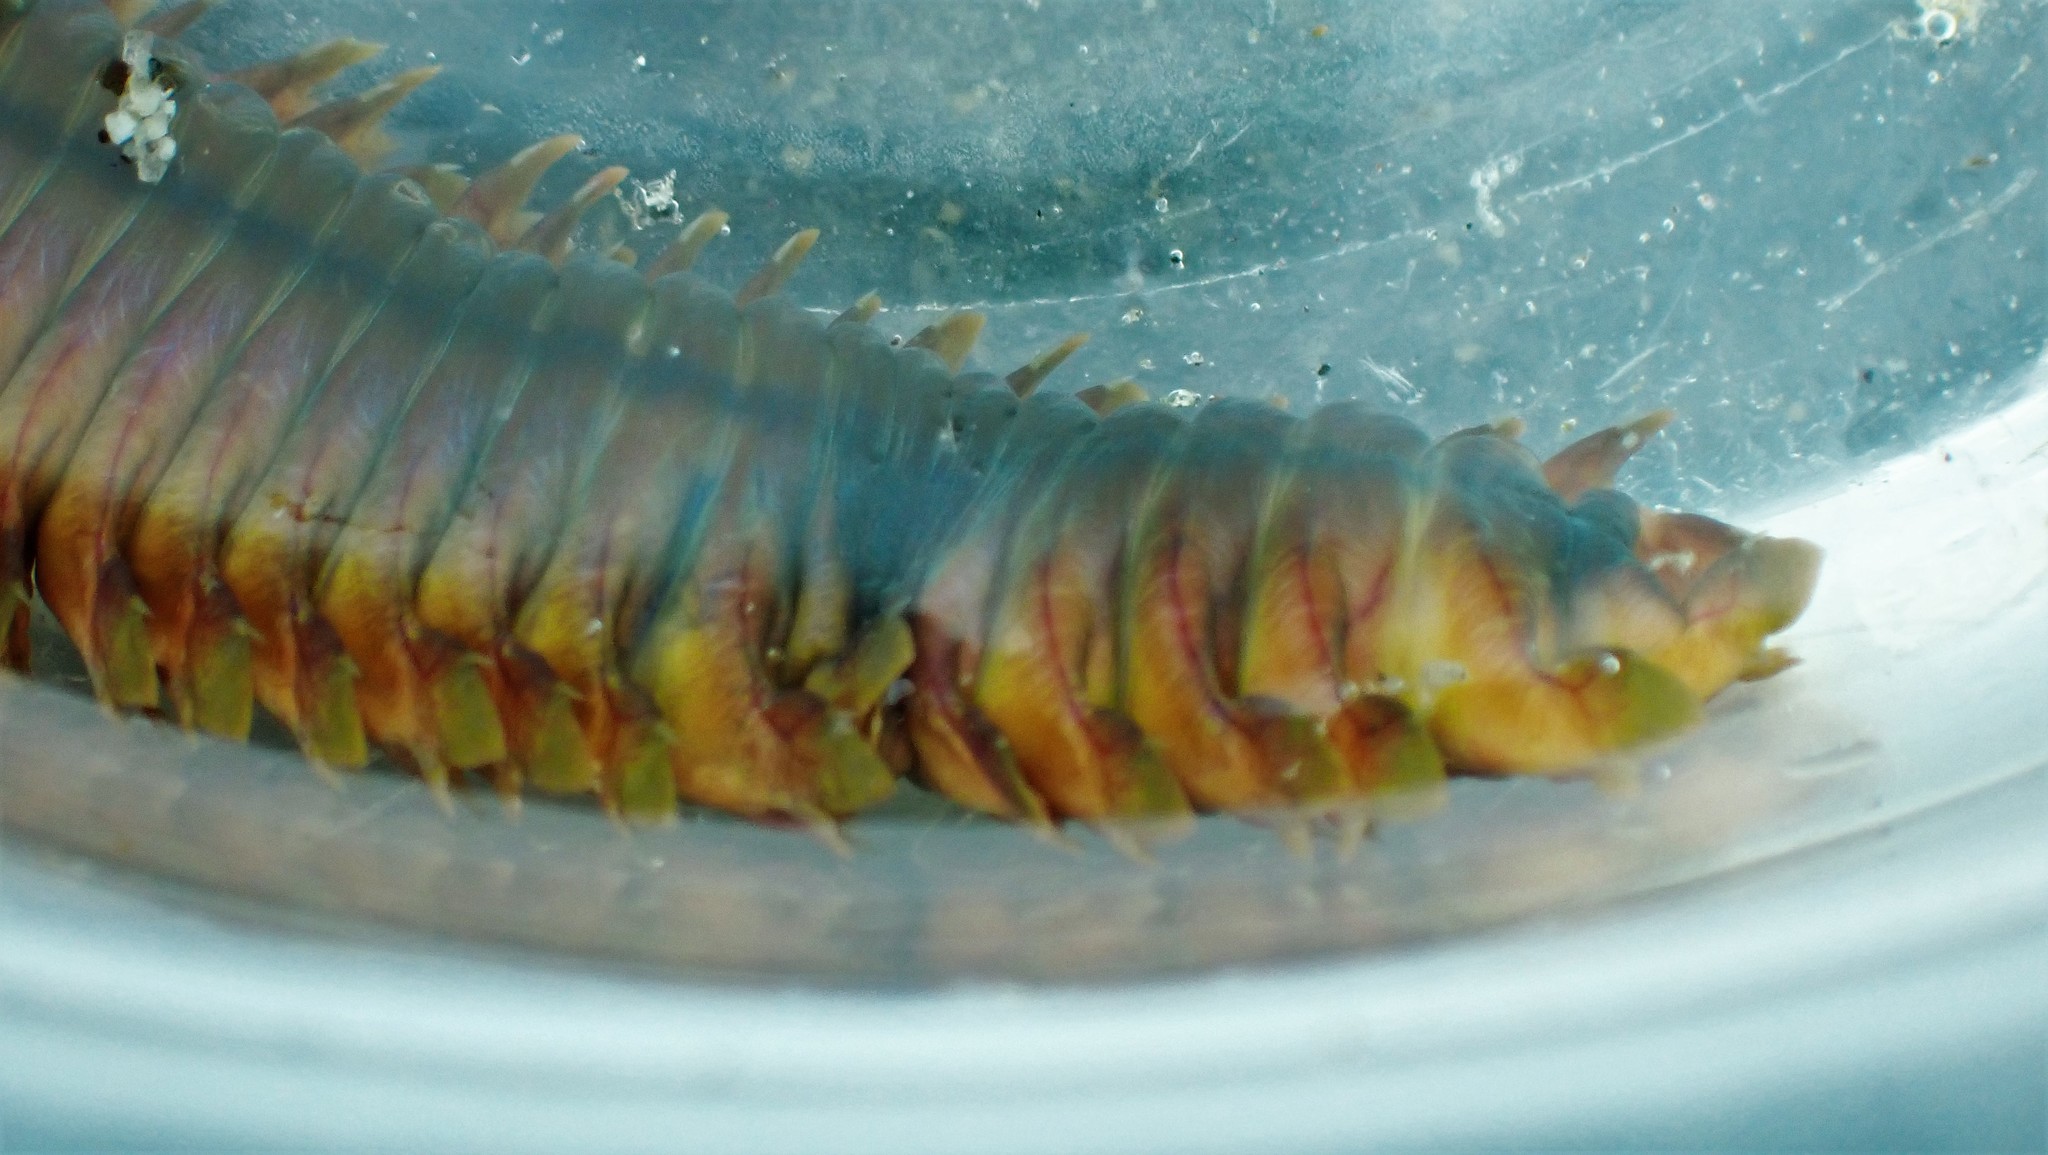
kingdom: Animalia
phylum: Annelida
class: Polychaeta
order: Phyllodocida
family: Nereididae
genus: Alitta
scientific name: Alitta williami
